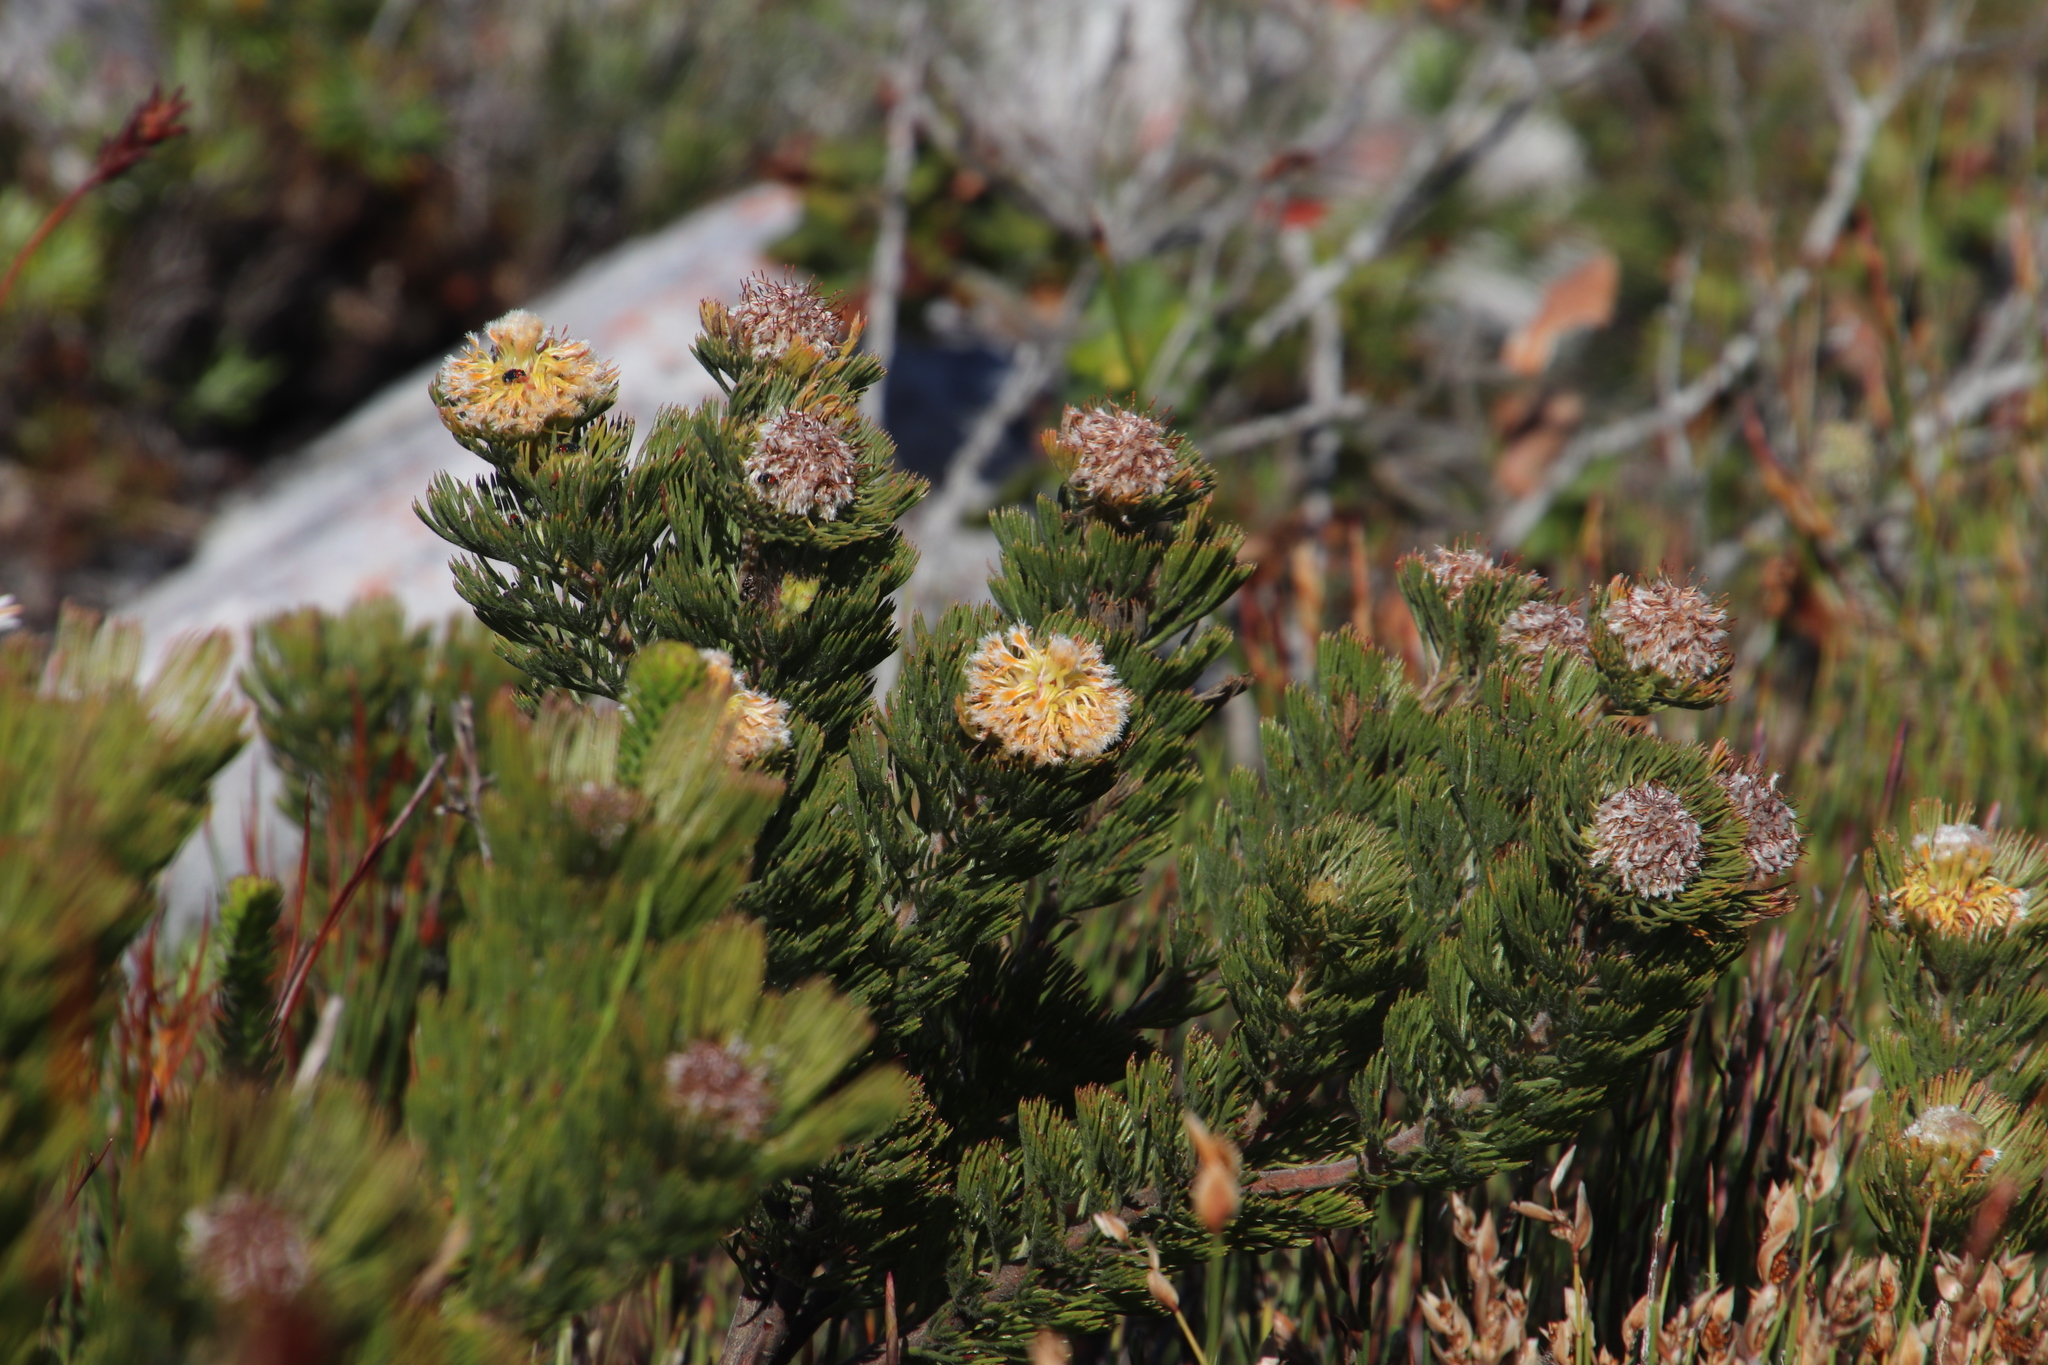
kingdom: Plantae
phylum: Tracheophyta
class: Magnoliopsida
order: Proteales
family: Proteaceae
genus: Serruria
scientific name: Serruria villosa
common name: Golden spiderhead
